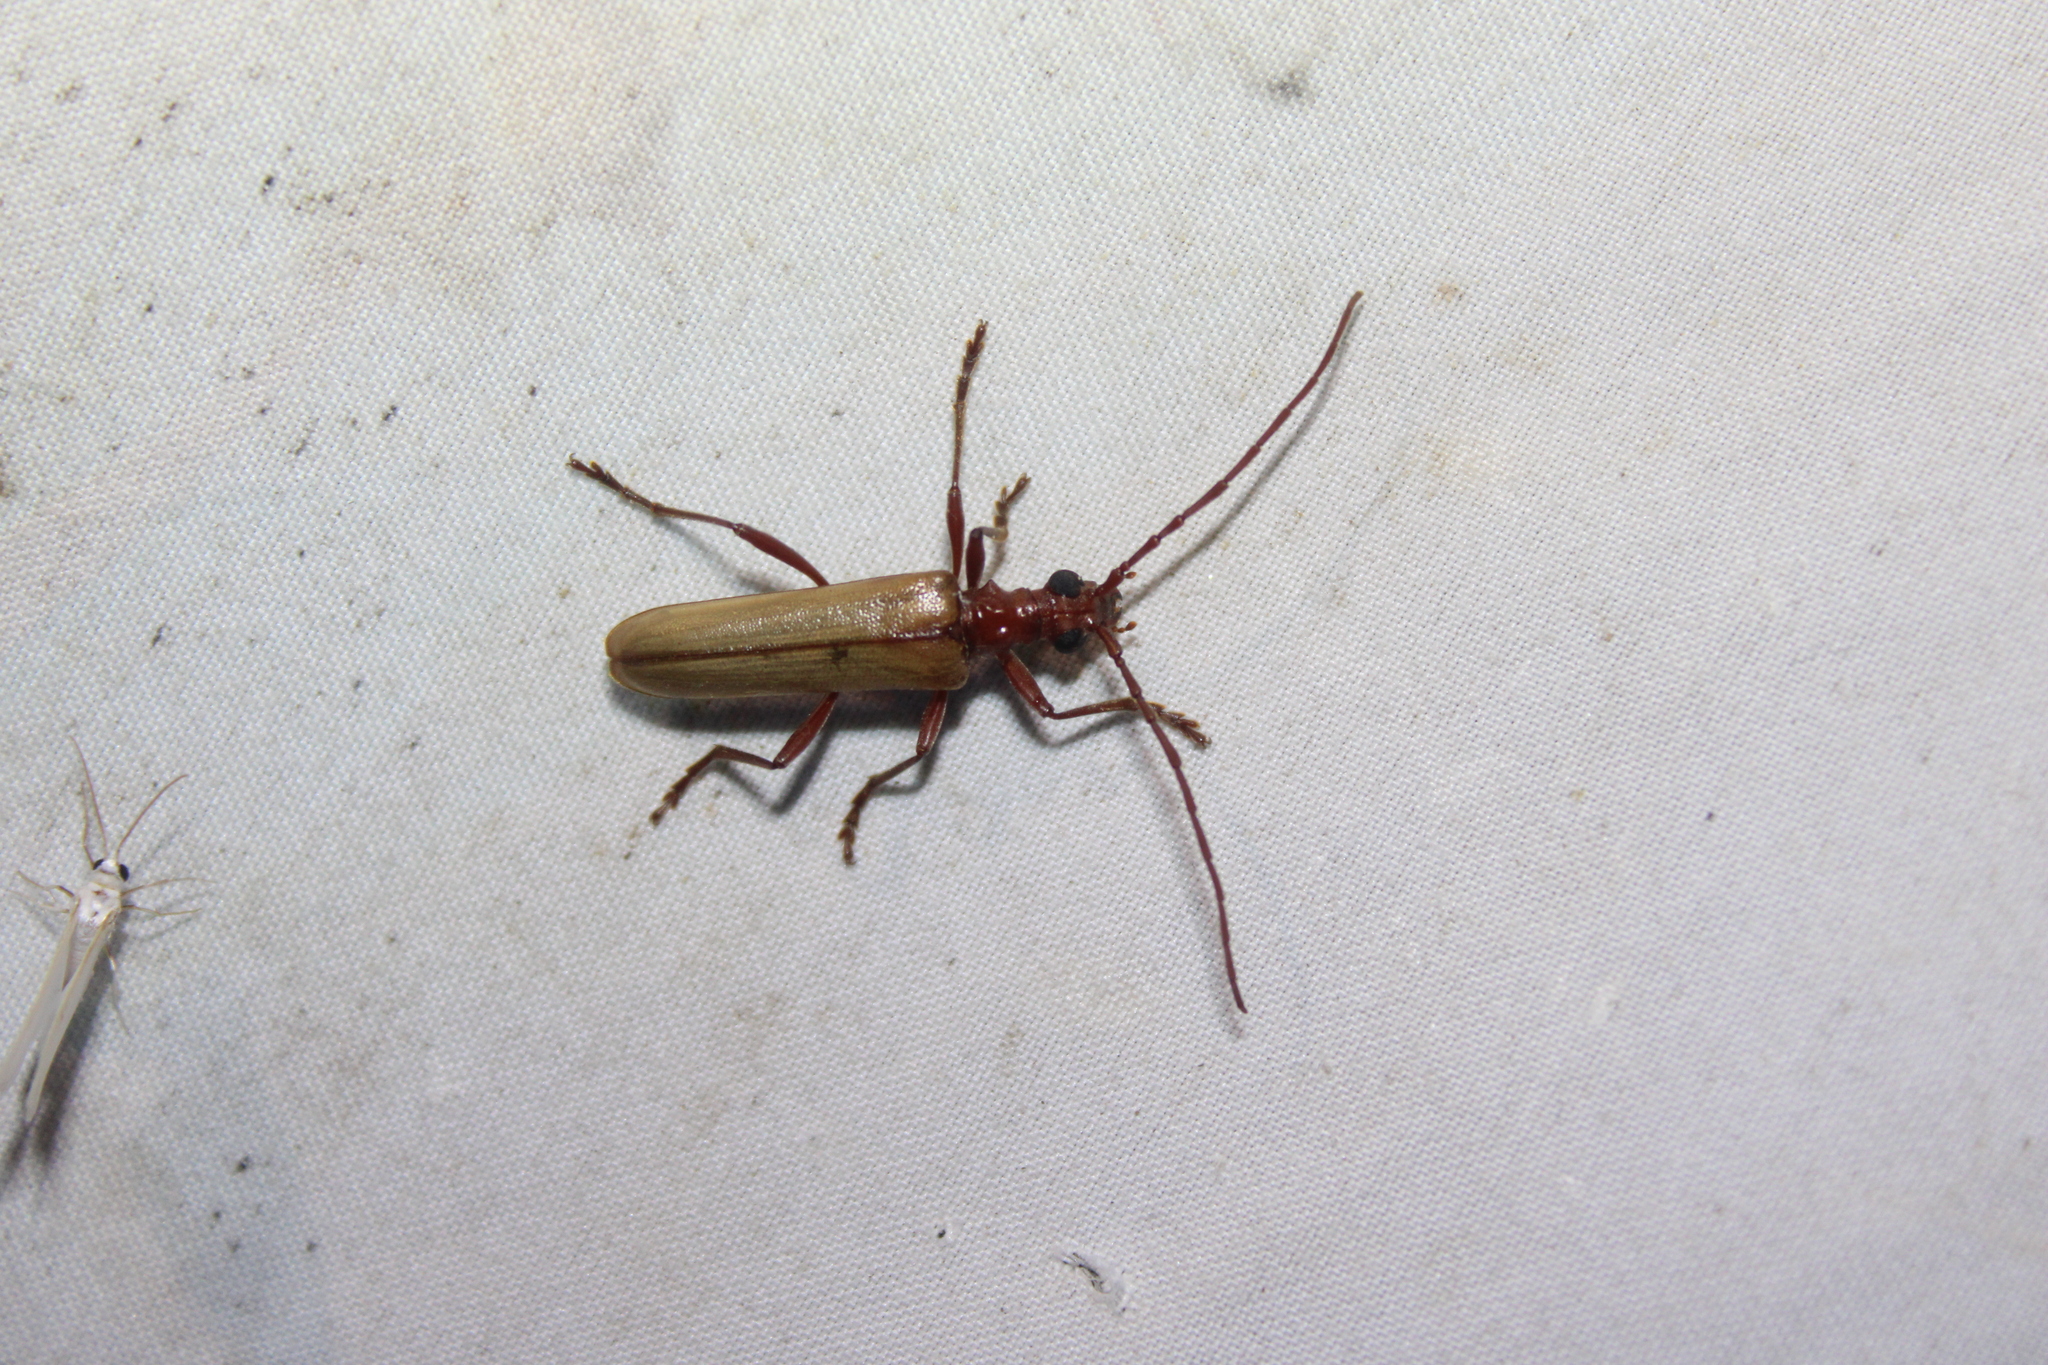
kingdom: Animalia
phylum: Arthropoda
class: Insecta
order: Coleoptera
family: Cerambycidae
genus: Centrodera
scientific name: Centrodera decolorata
